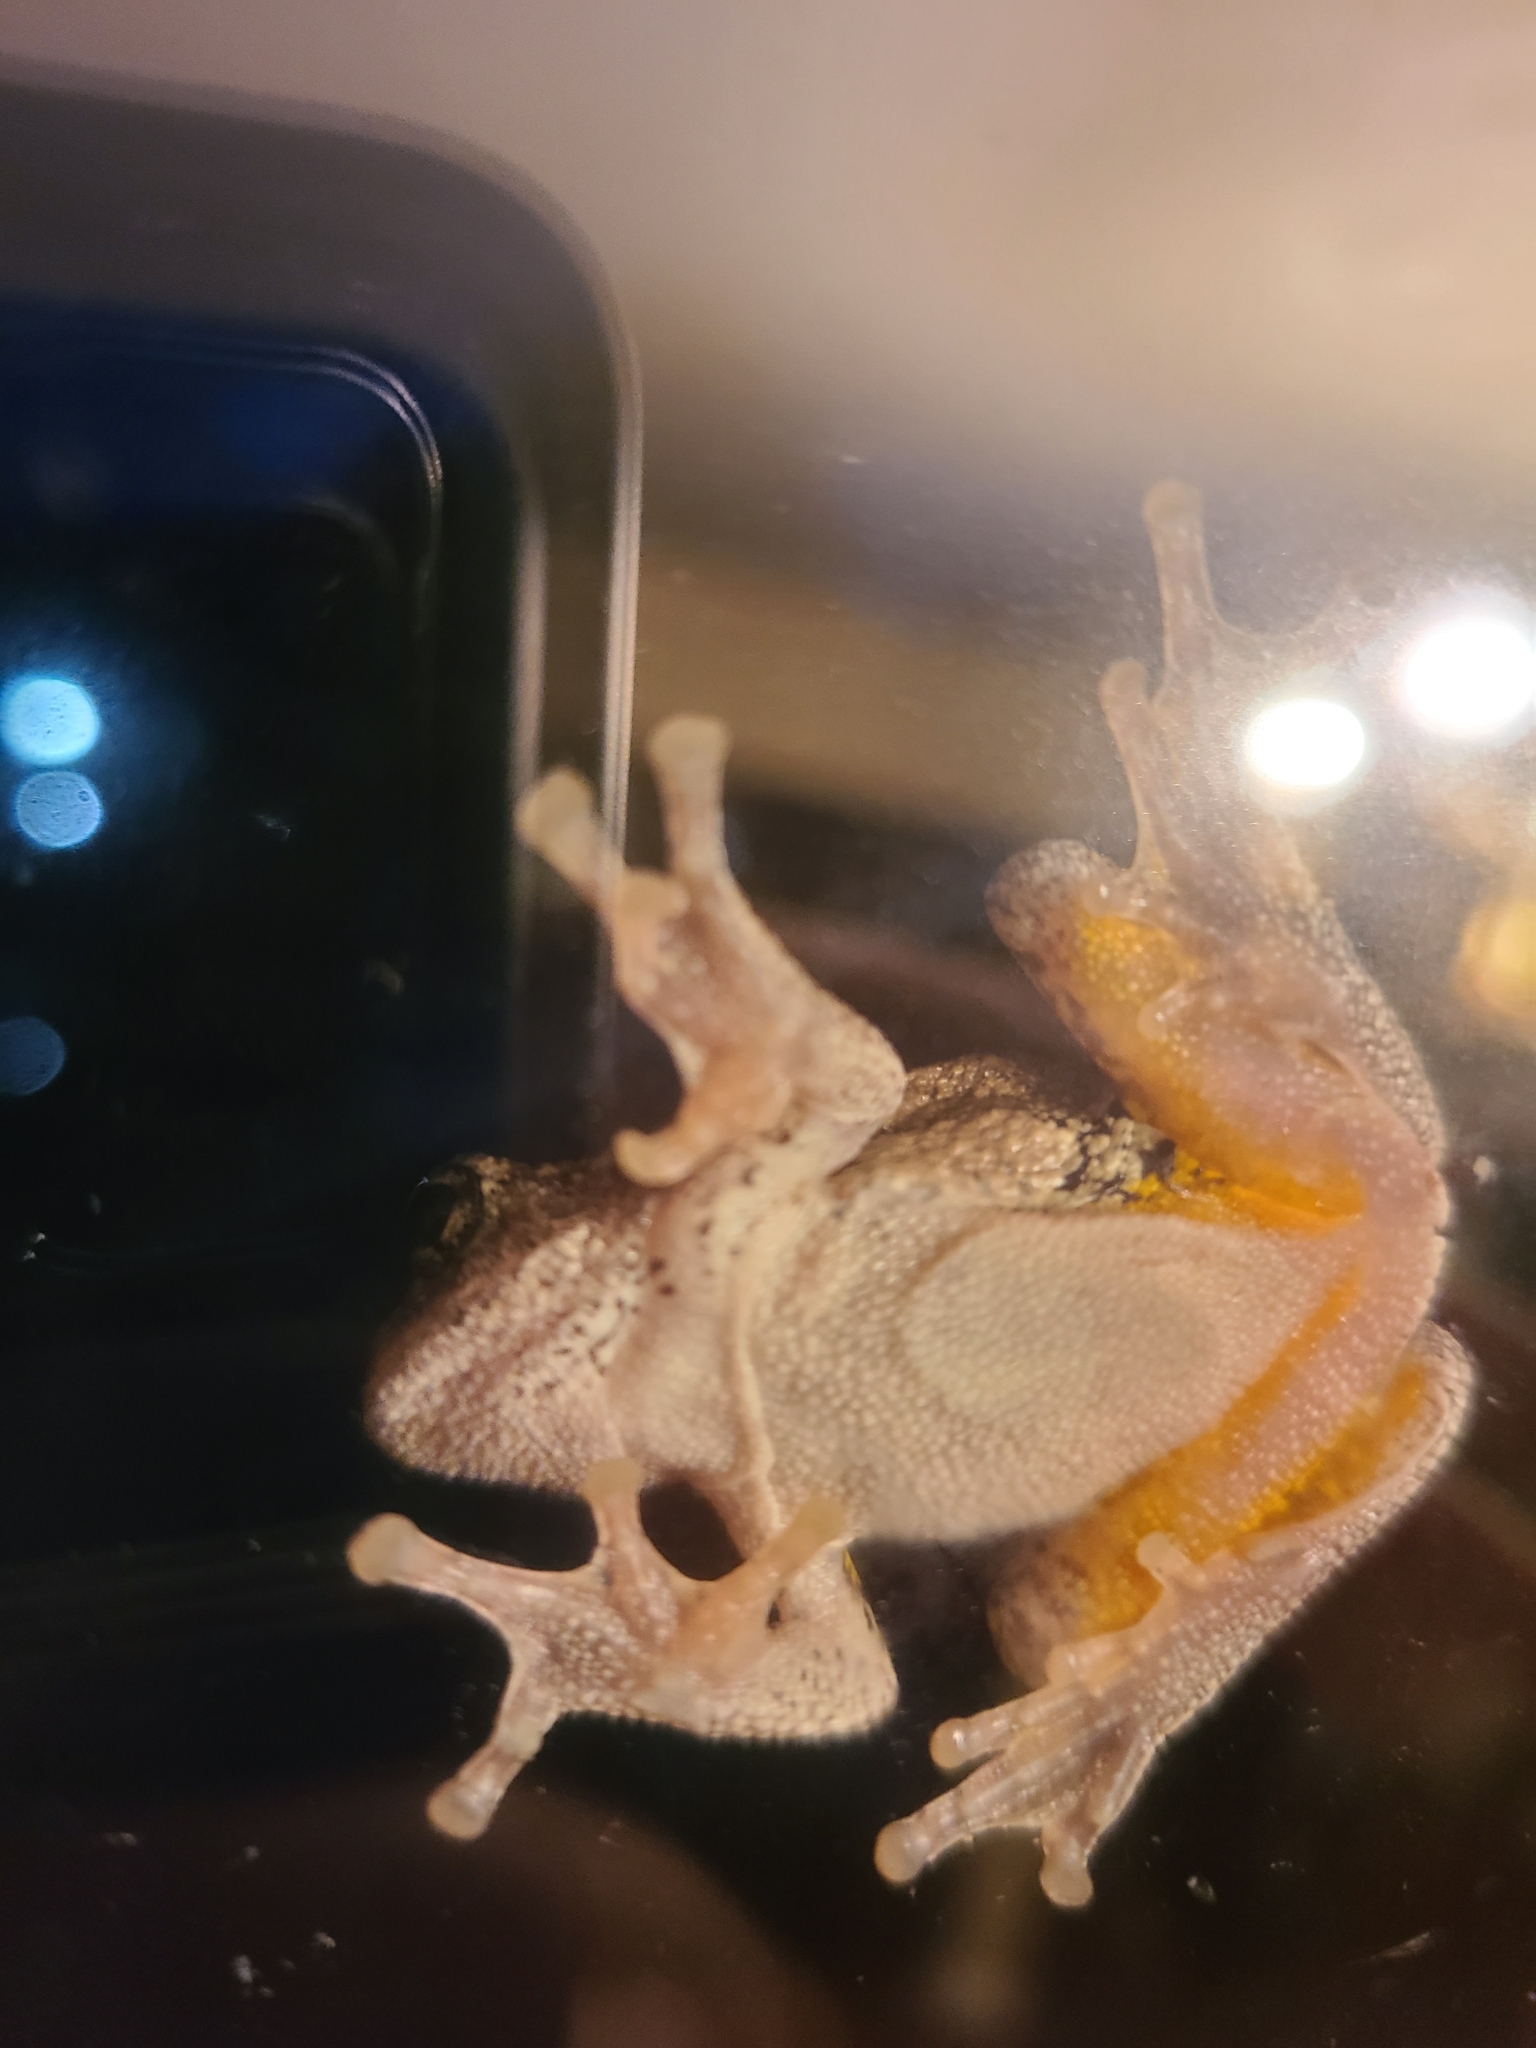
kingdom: Animalia
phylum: Chordata
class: Amphibia
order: Anura
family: Hylidae
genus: Hyla
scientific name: Hyla
